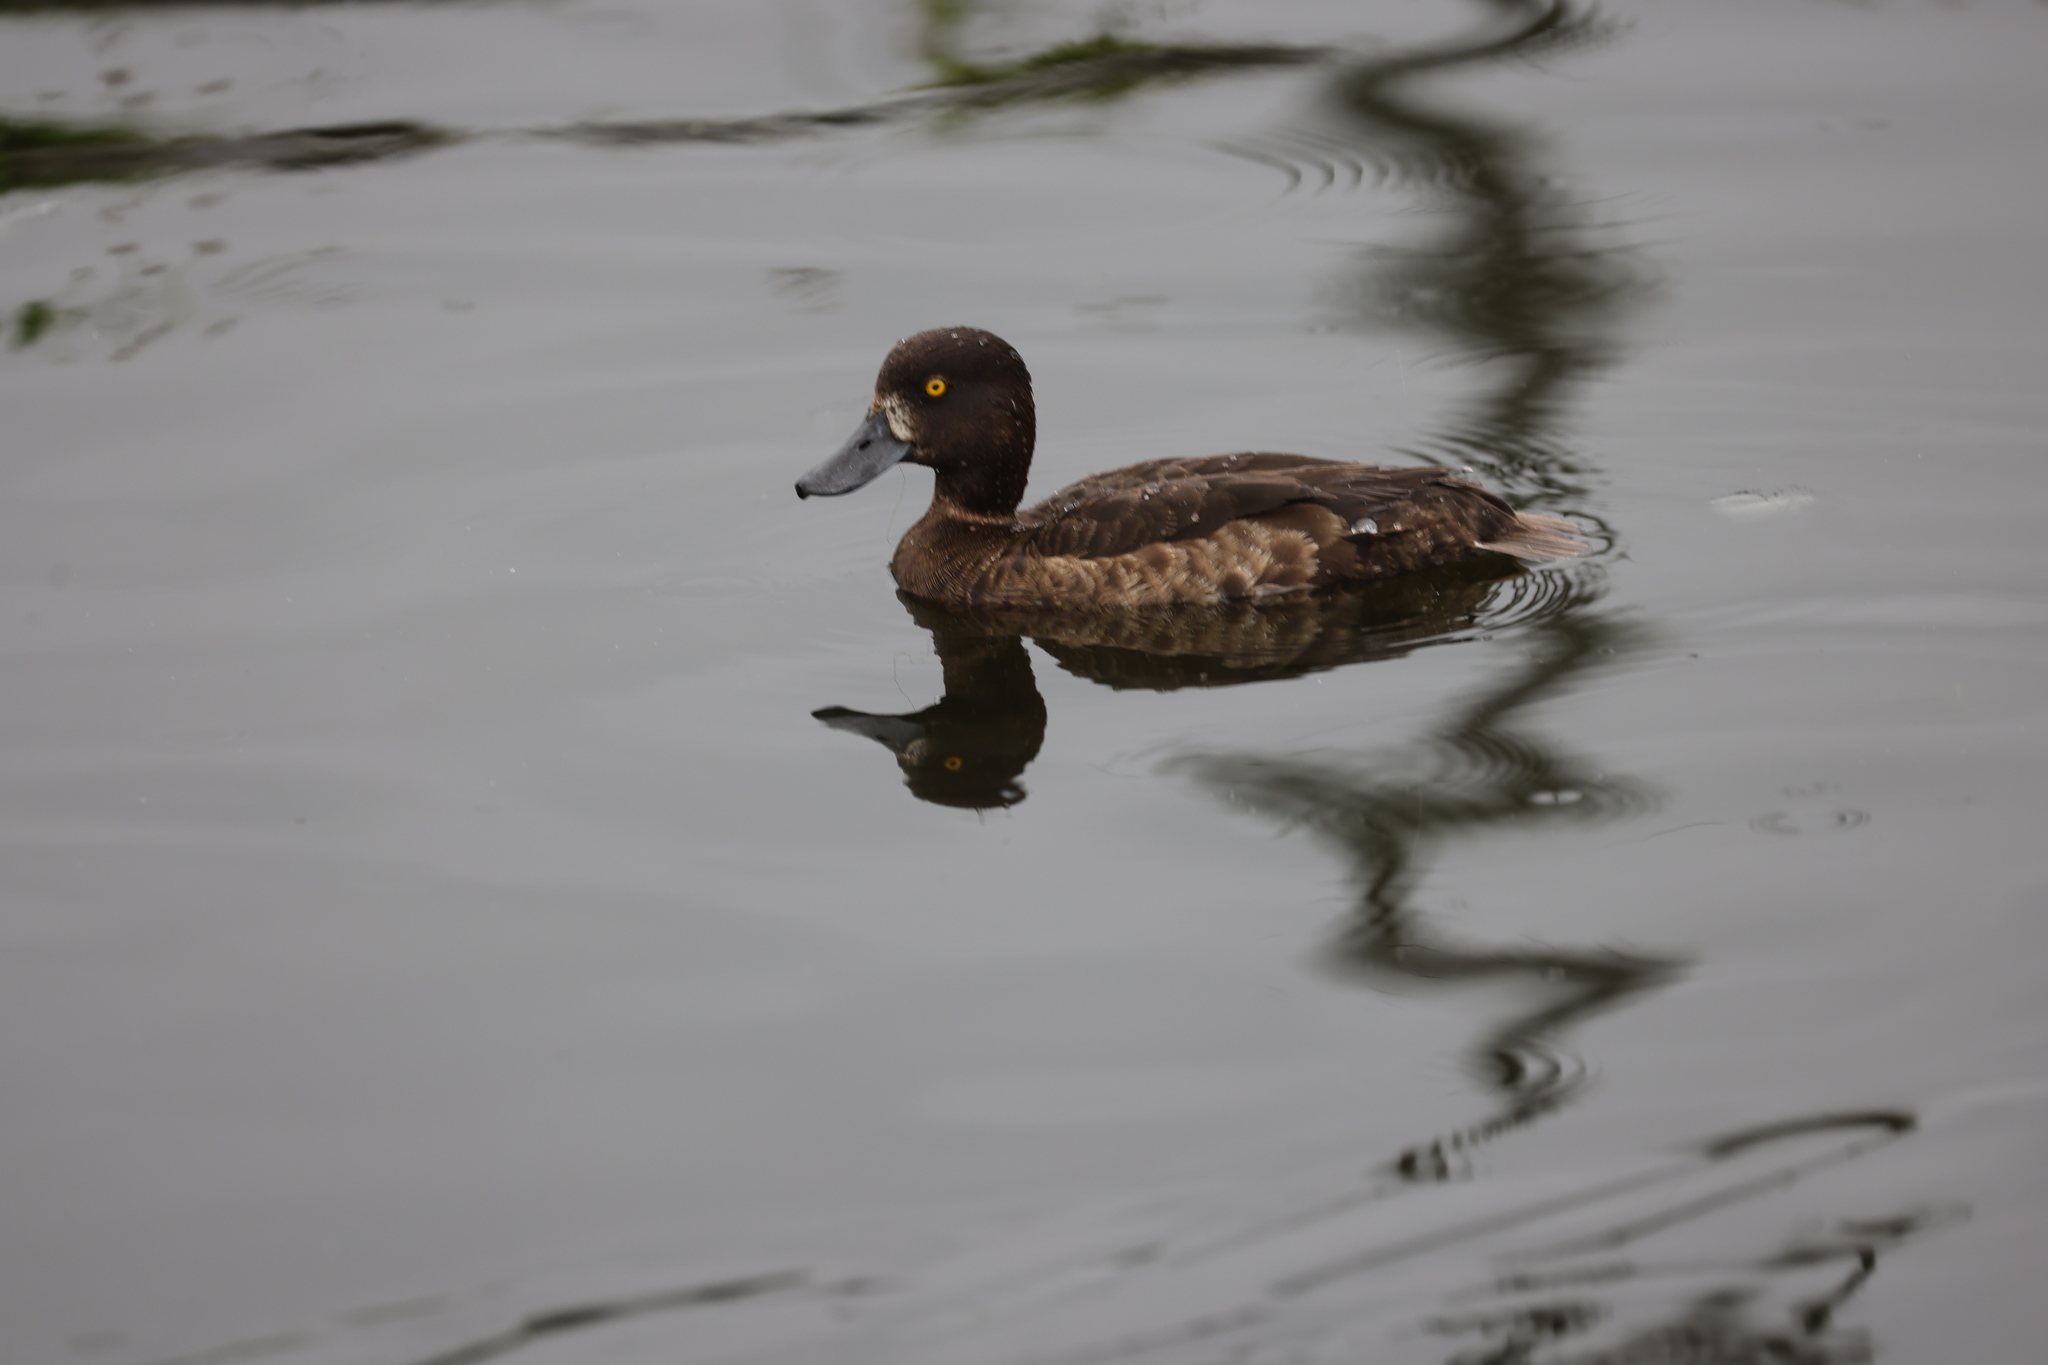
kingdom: Animalia
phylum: Chordata
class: Aves
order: Anseriformes
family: Anatidae
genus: Aythya
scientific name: Aythya fuligula
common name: Tufted duck
